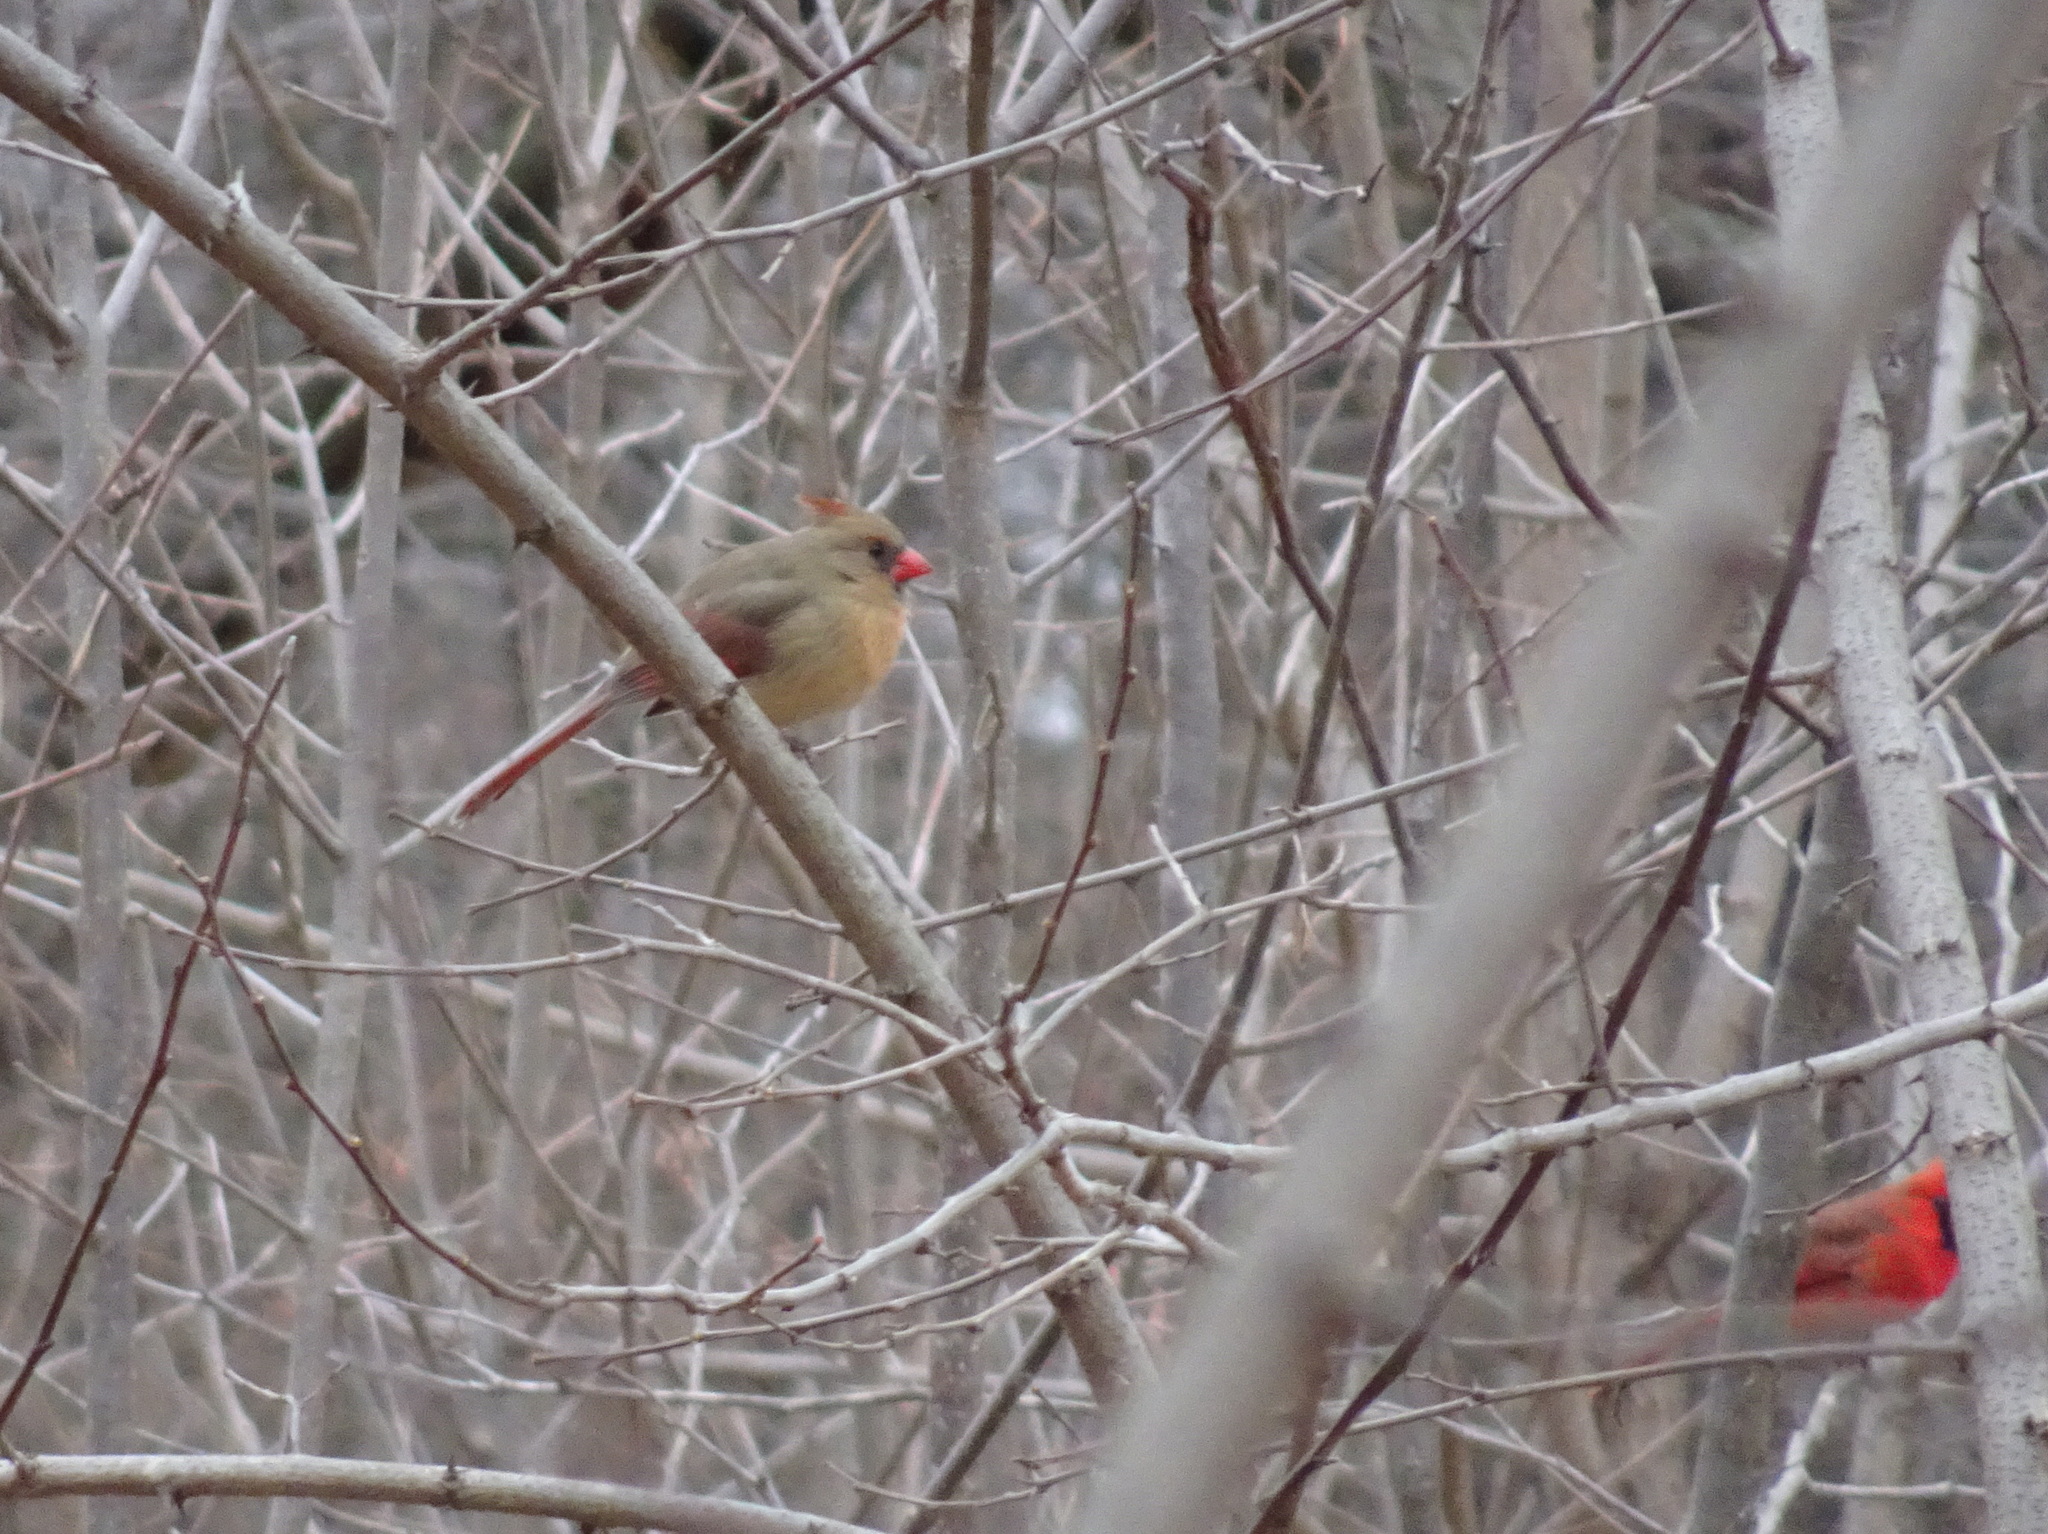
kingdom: Animalia
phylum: Chordata
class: Aves
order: Passeriformes
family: Cardinalidae
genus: Cardinalis
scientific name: Cardinalis cardinalis
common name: Northern cardinal
